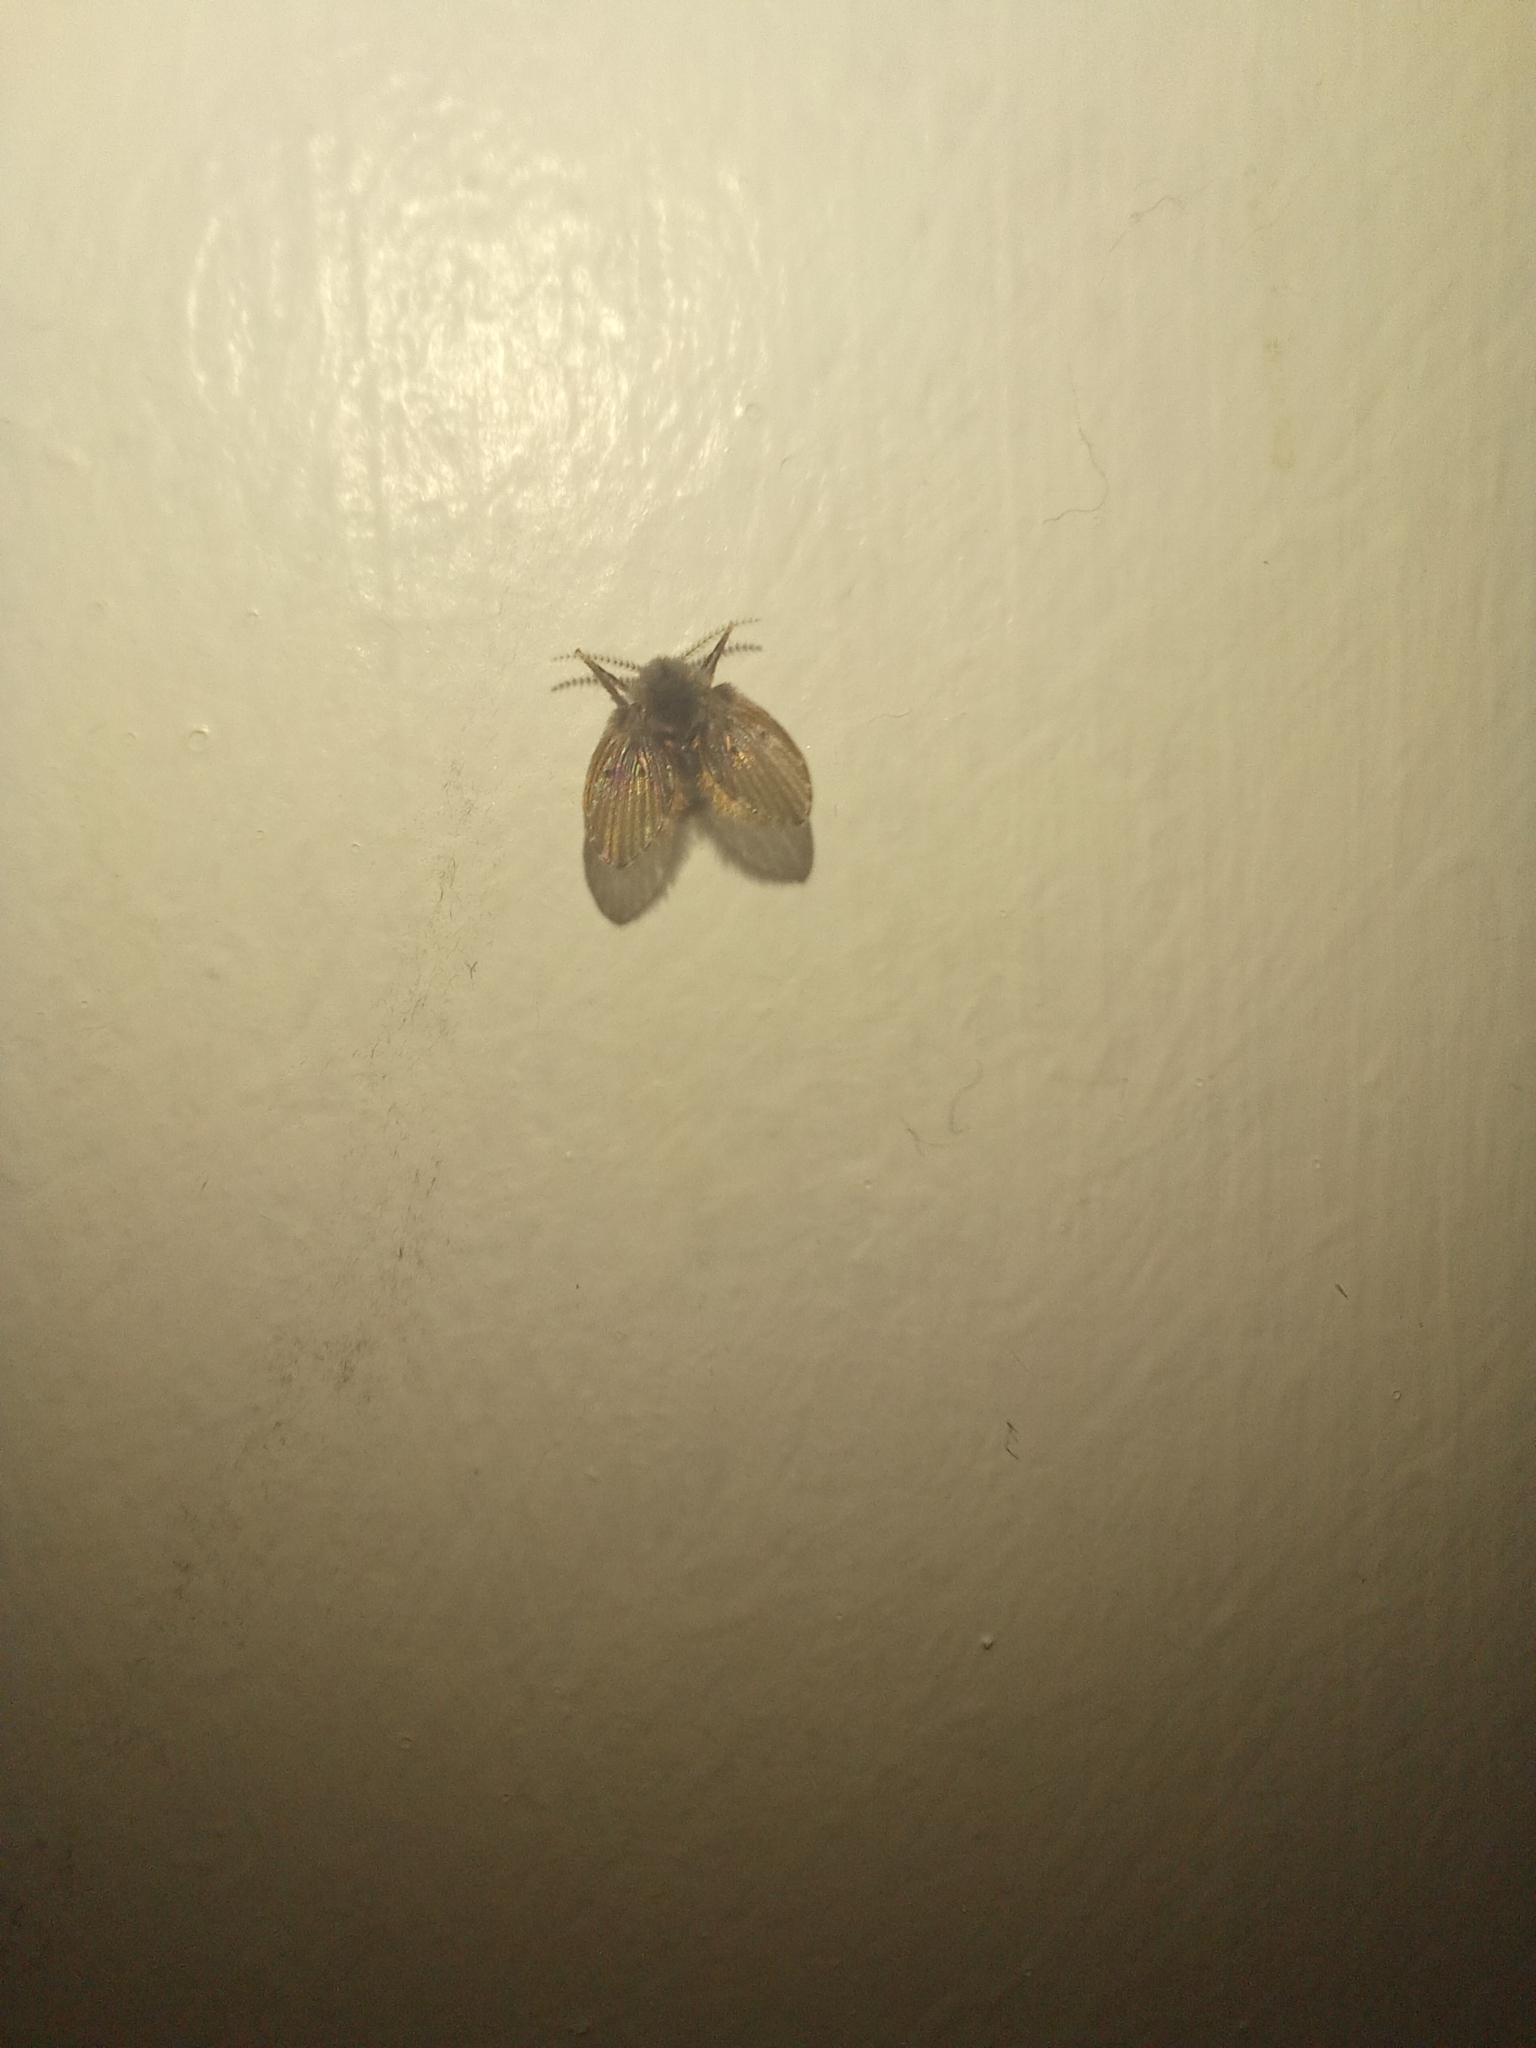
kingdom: Animalia
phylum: Arthropoda
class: Insecta
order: Diptera
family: Psychodidae
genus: Clogmia
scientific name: Clogmia albipunctatus
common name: White-spotted moth fly
